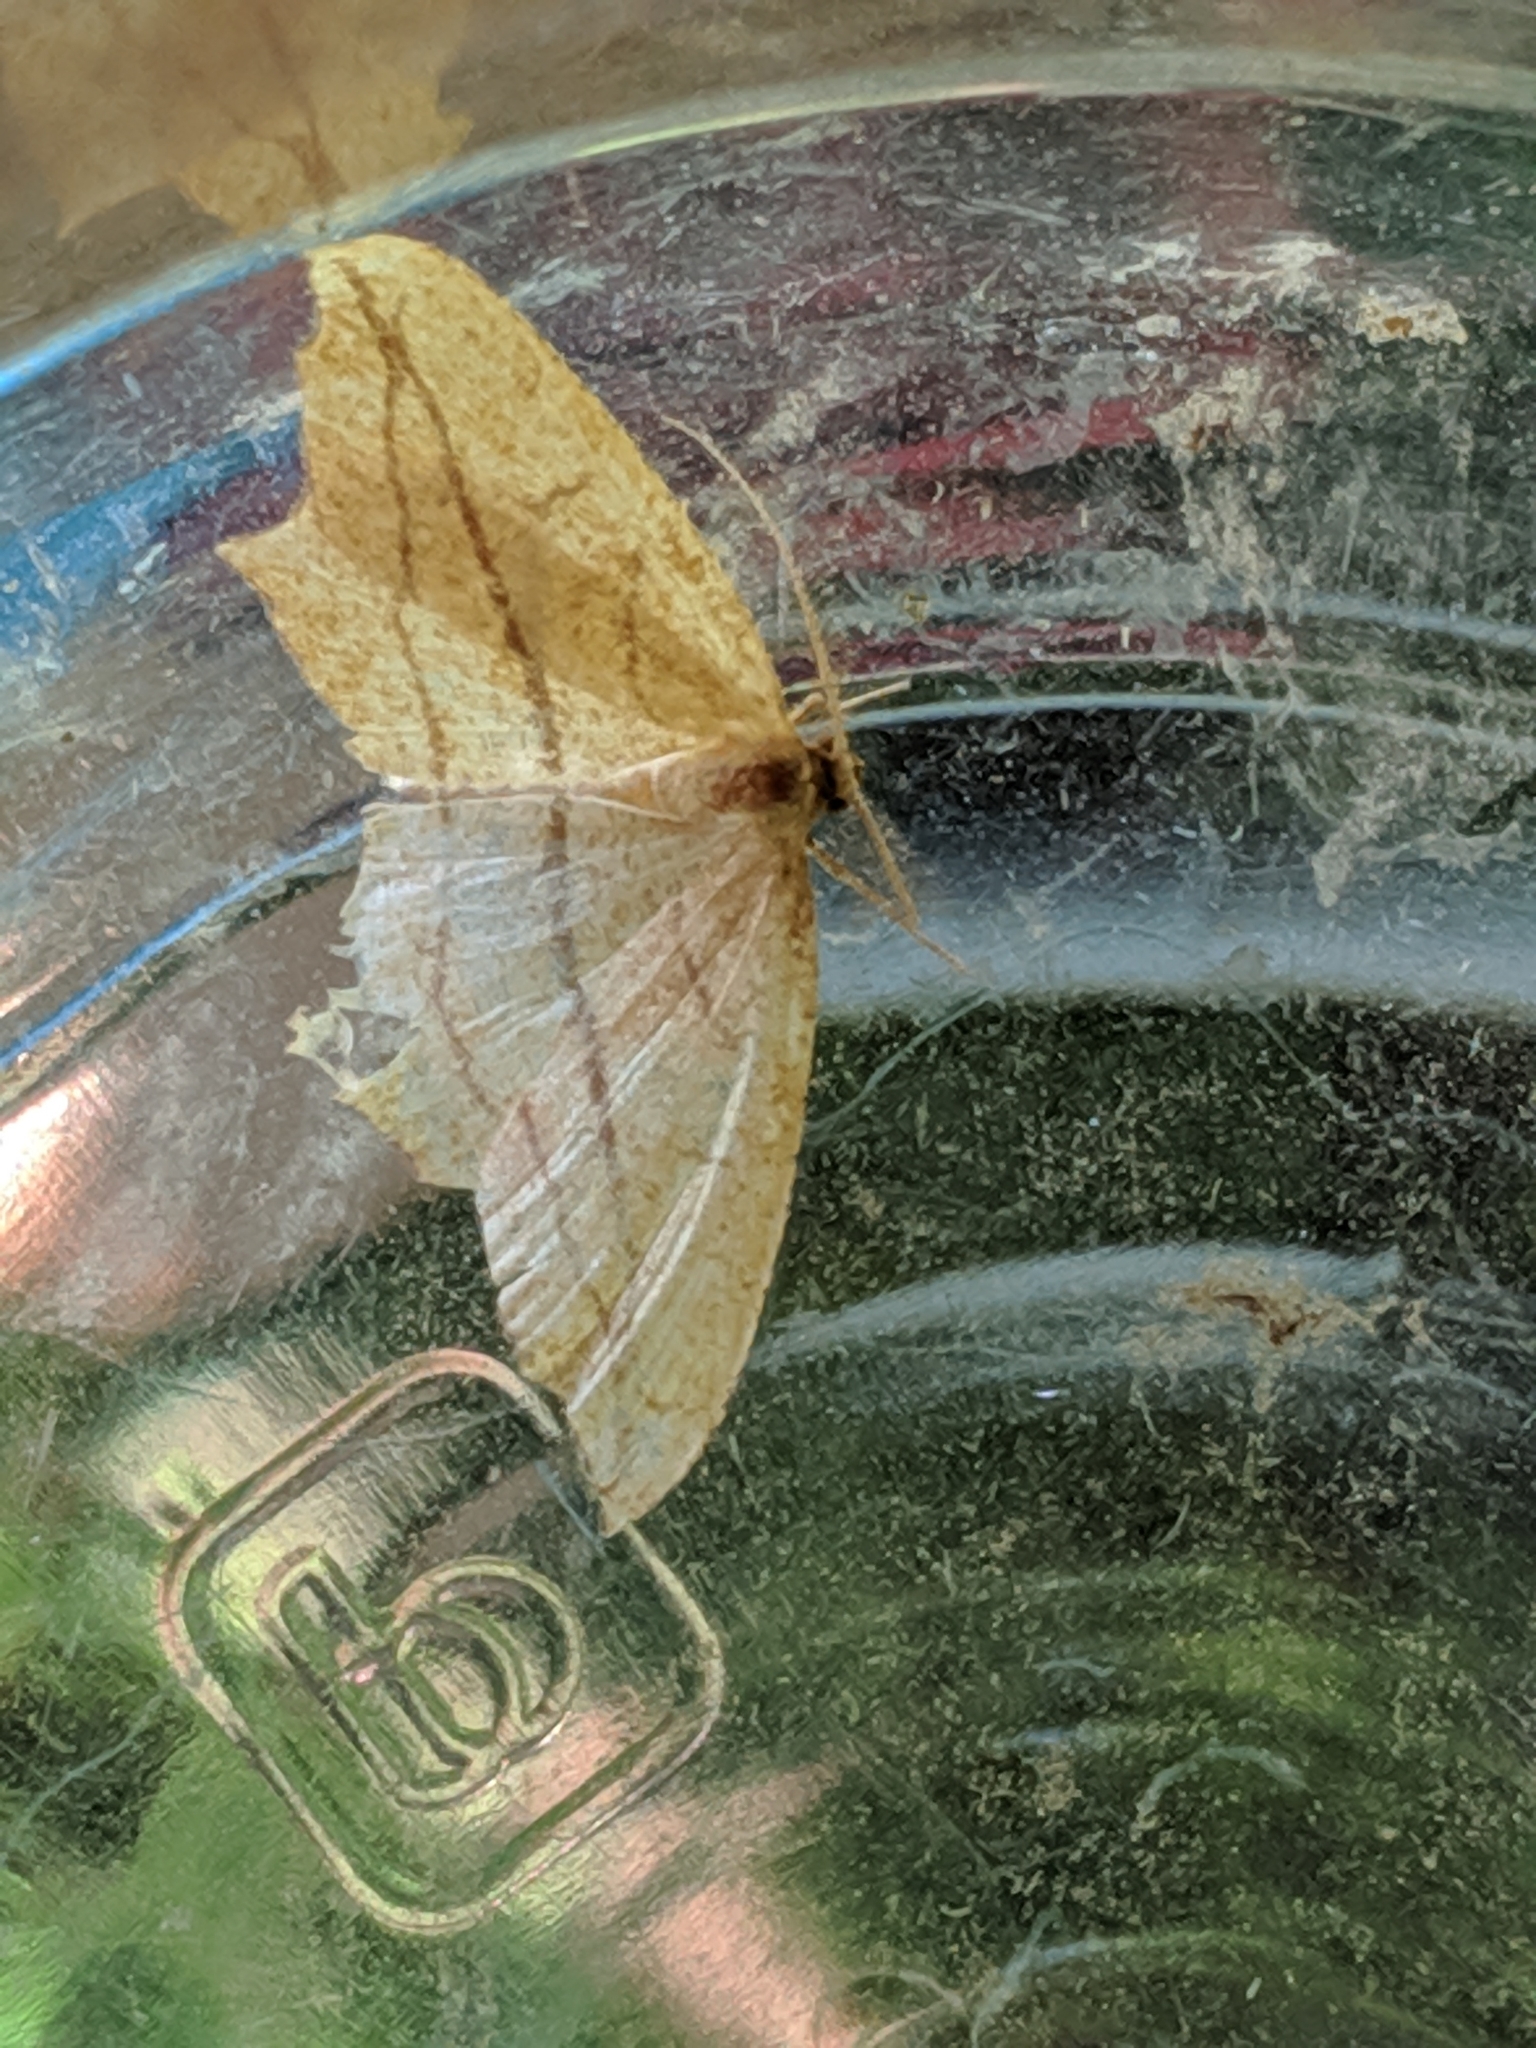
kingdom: Animalia
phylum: Arthropoda
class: Insecta
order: Lepidoptera
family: Geometridae
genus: Timandra
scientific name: Timandra amaturaria
